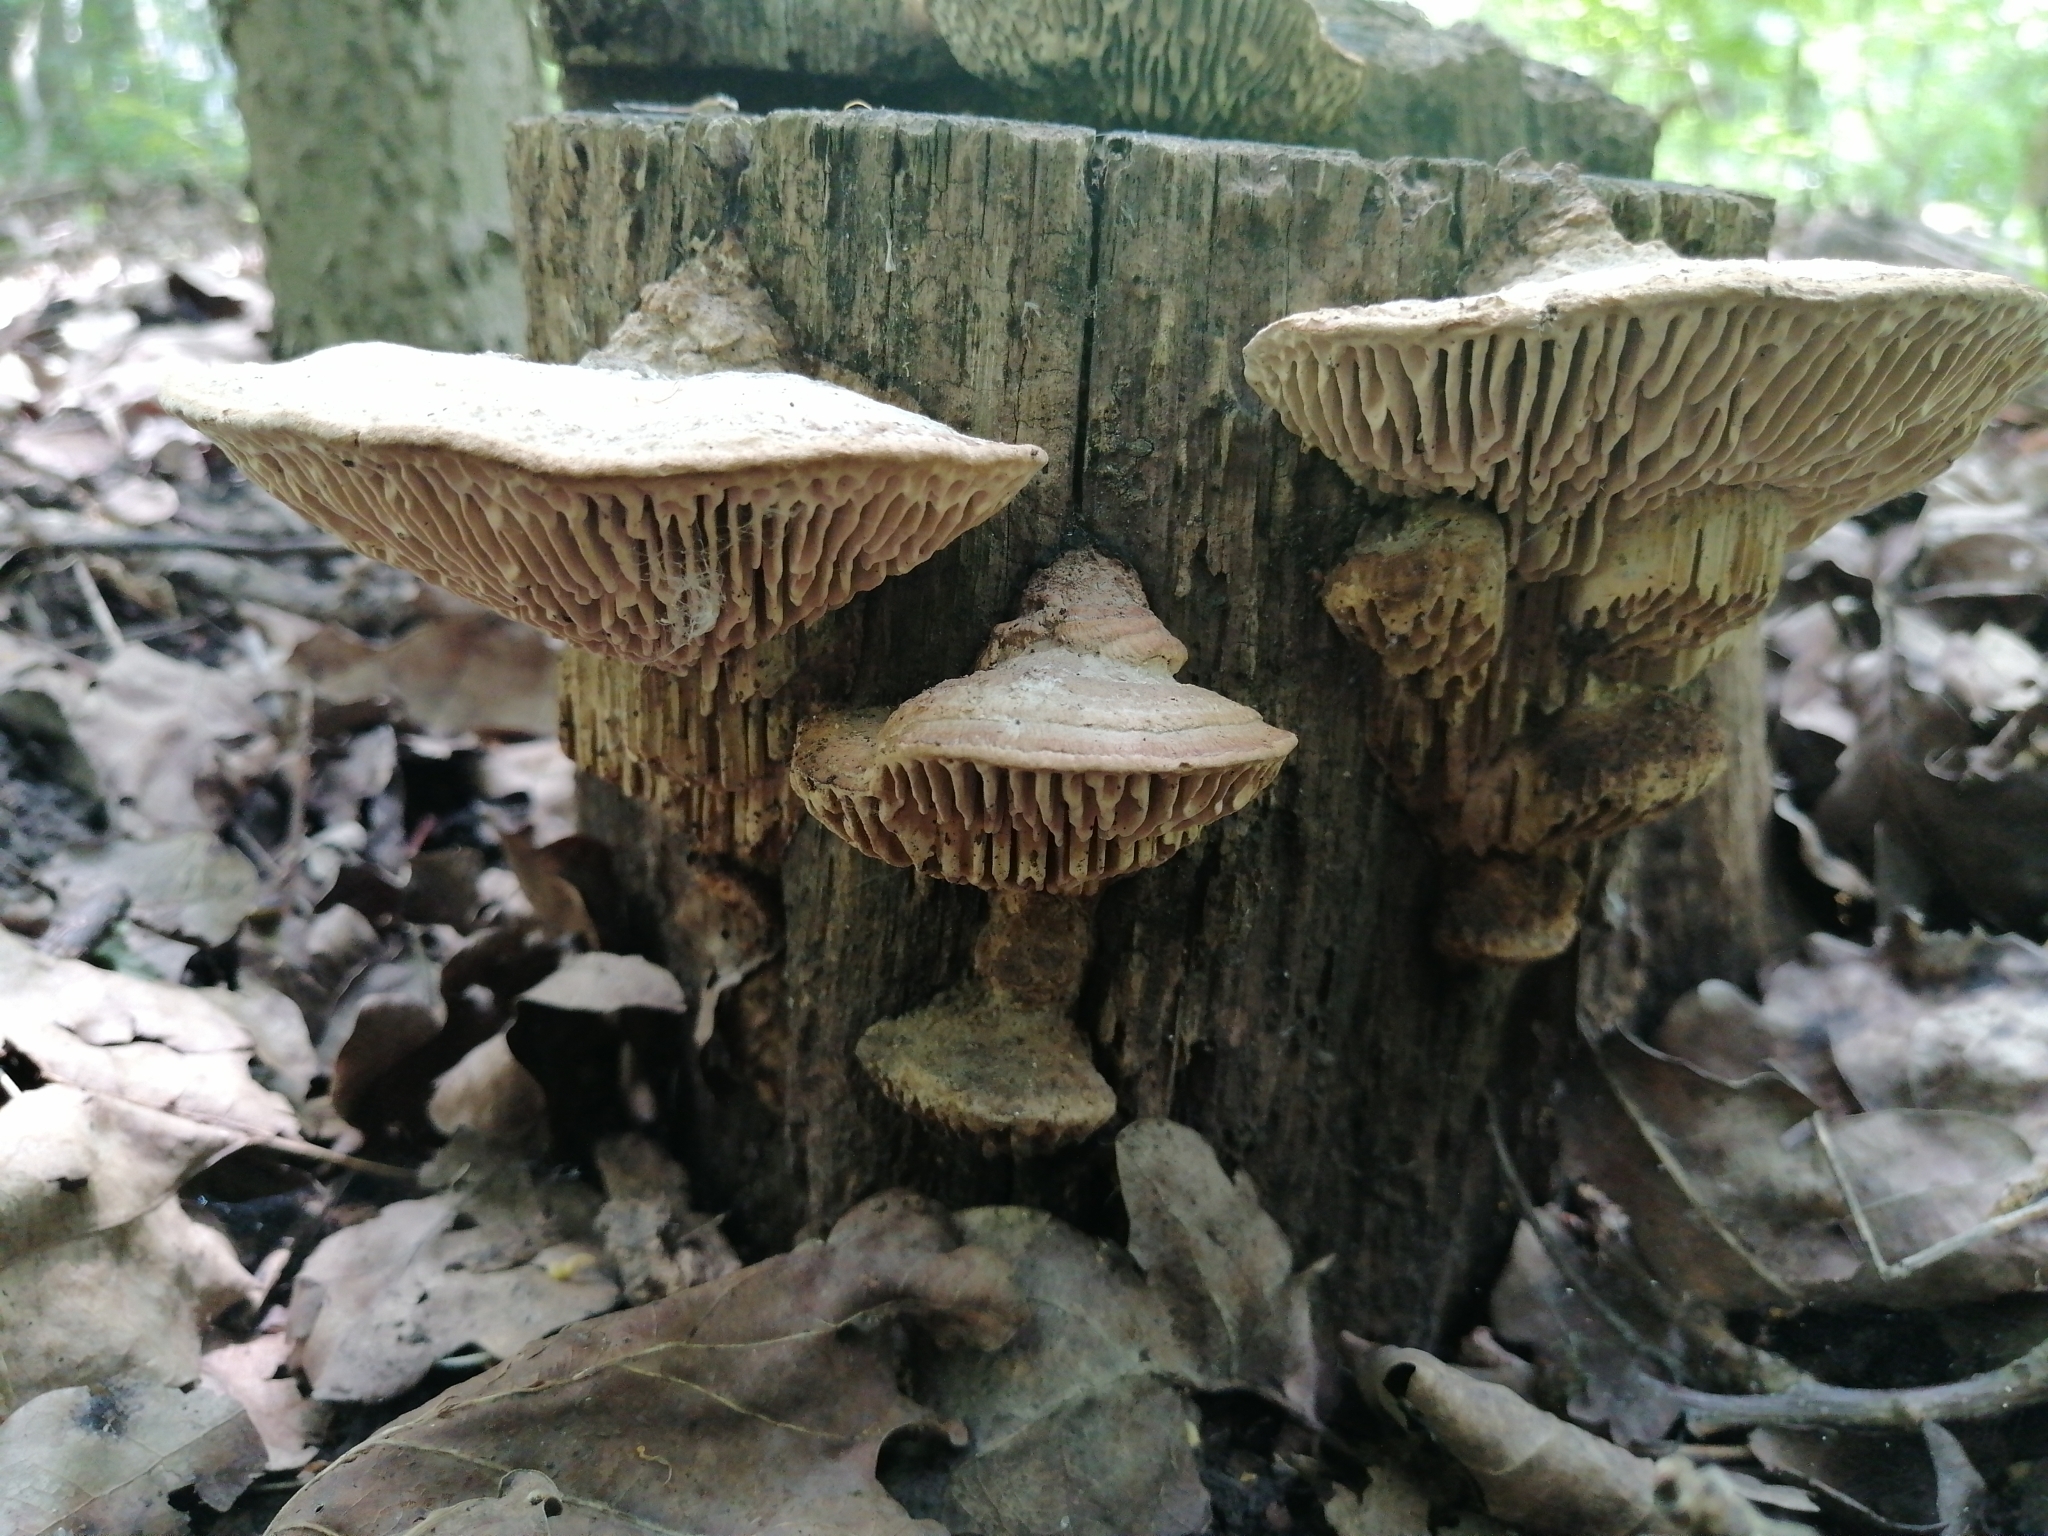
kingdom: Fungi
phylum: Basidiomycota
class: Agaricomycetes
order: Polyporales
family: Fomitopsidaceae
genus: Fomitopsis
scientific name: Fomitopsis
